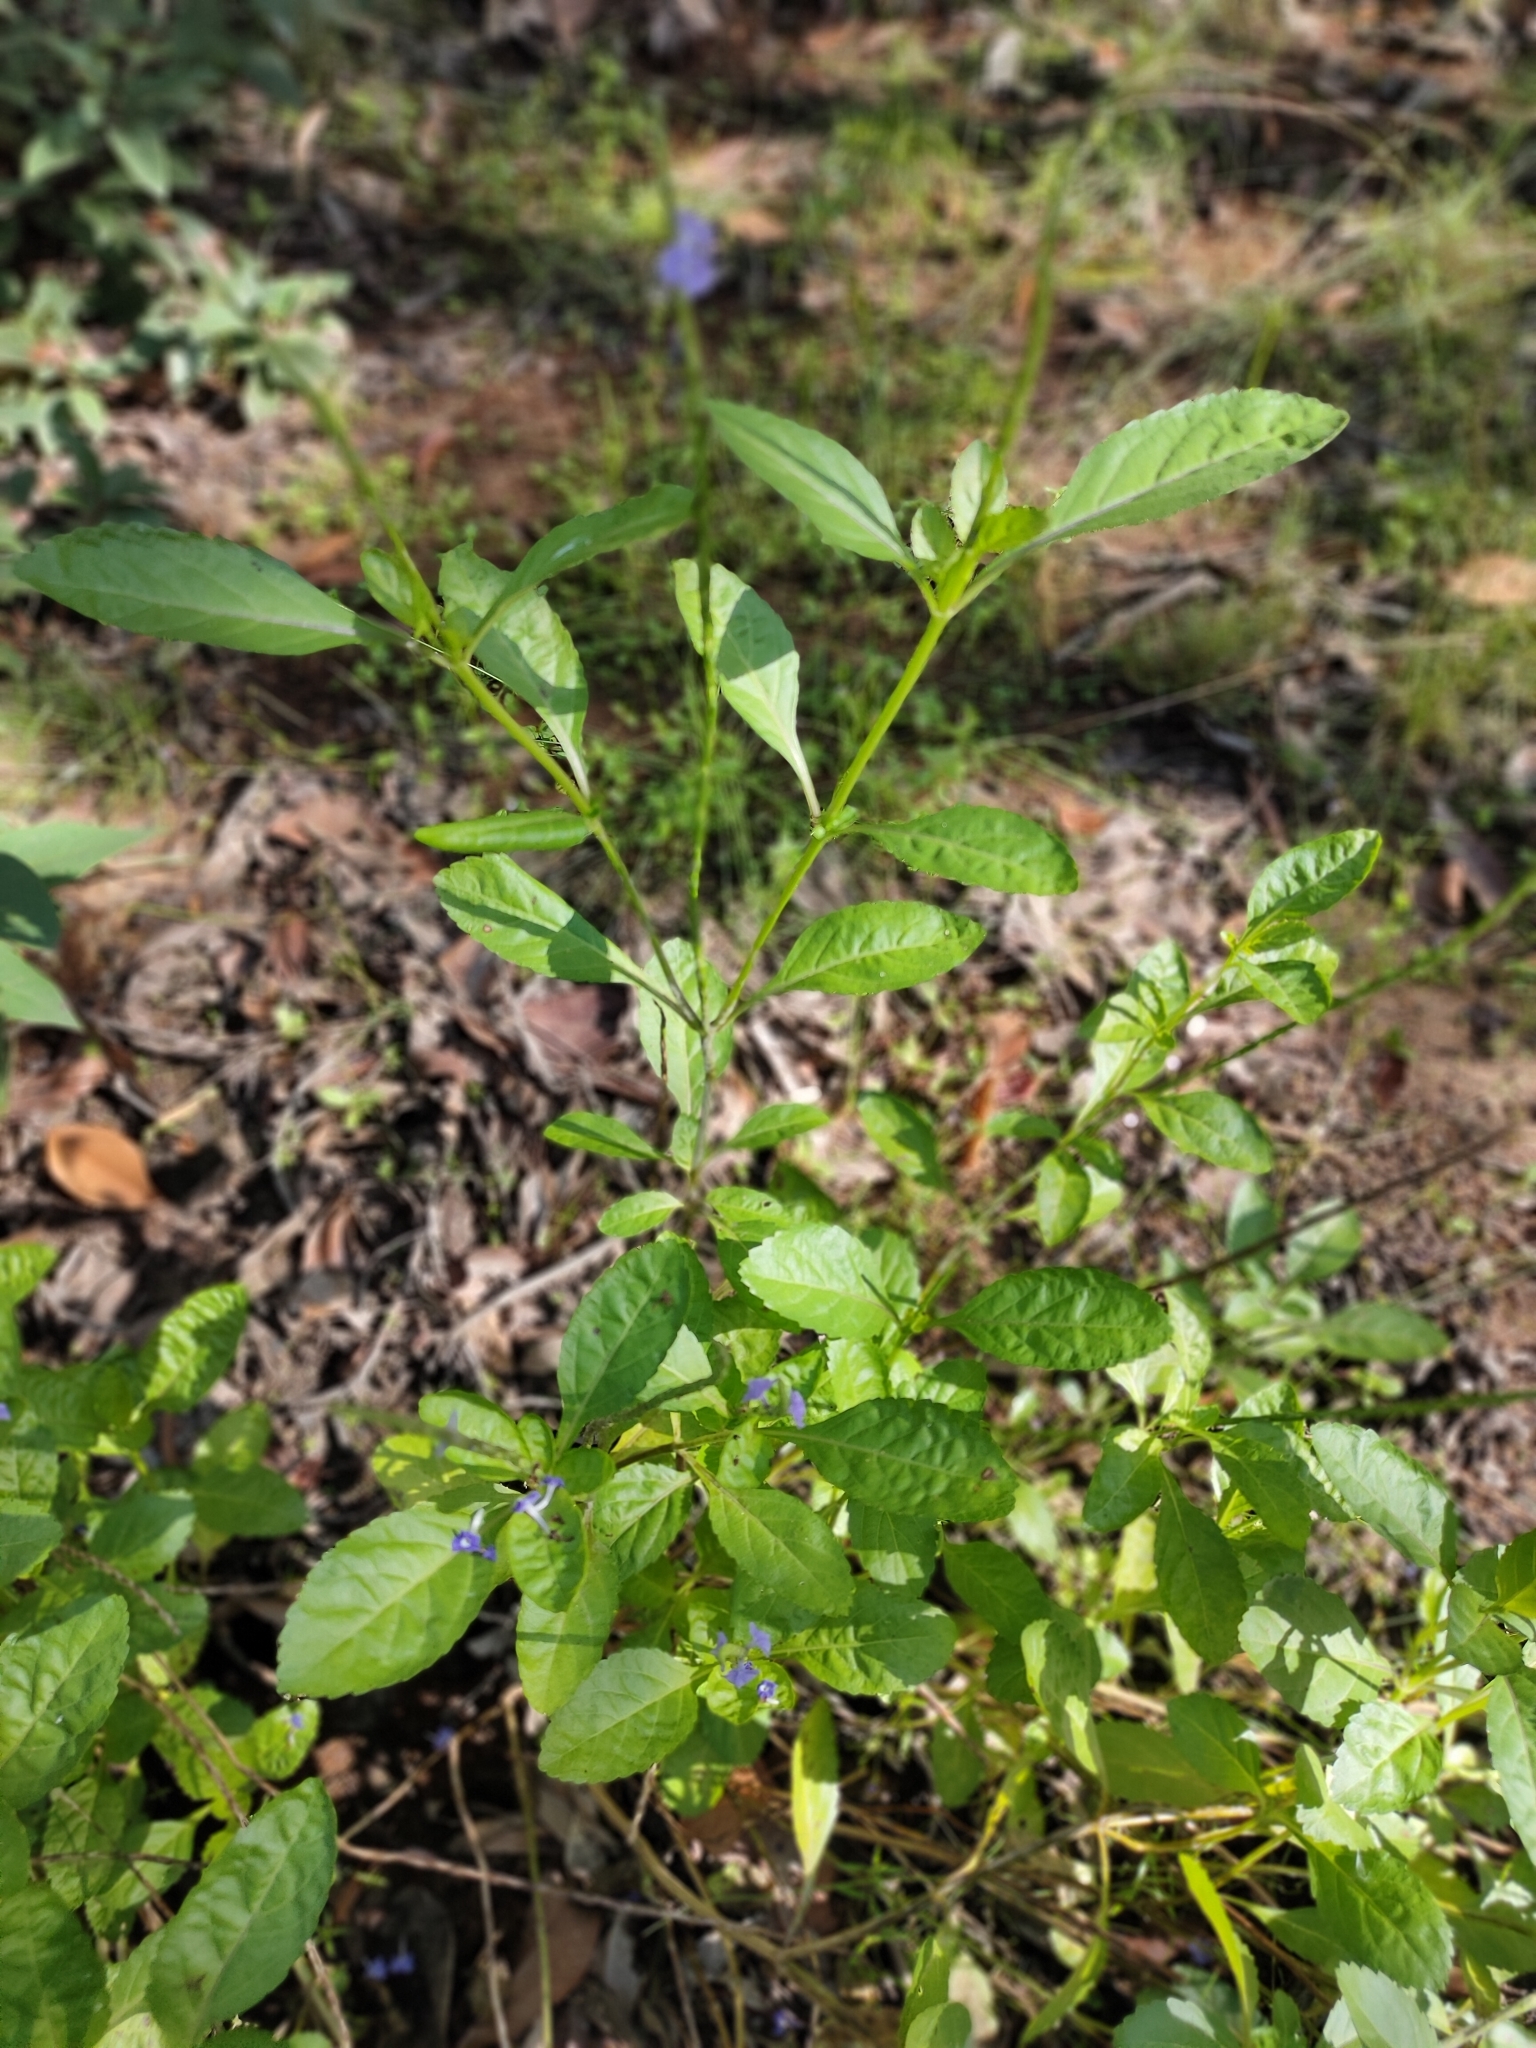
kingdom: Plantae
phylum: Tracheophyta
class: Magnoliopsida
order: Lamiales
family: Verbenaceae
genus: Stachytarpheta
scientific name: Stachytarpheta jamaicensis
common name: Light-blue snakeweed
